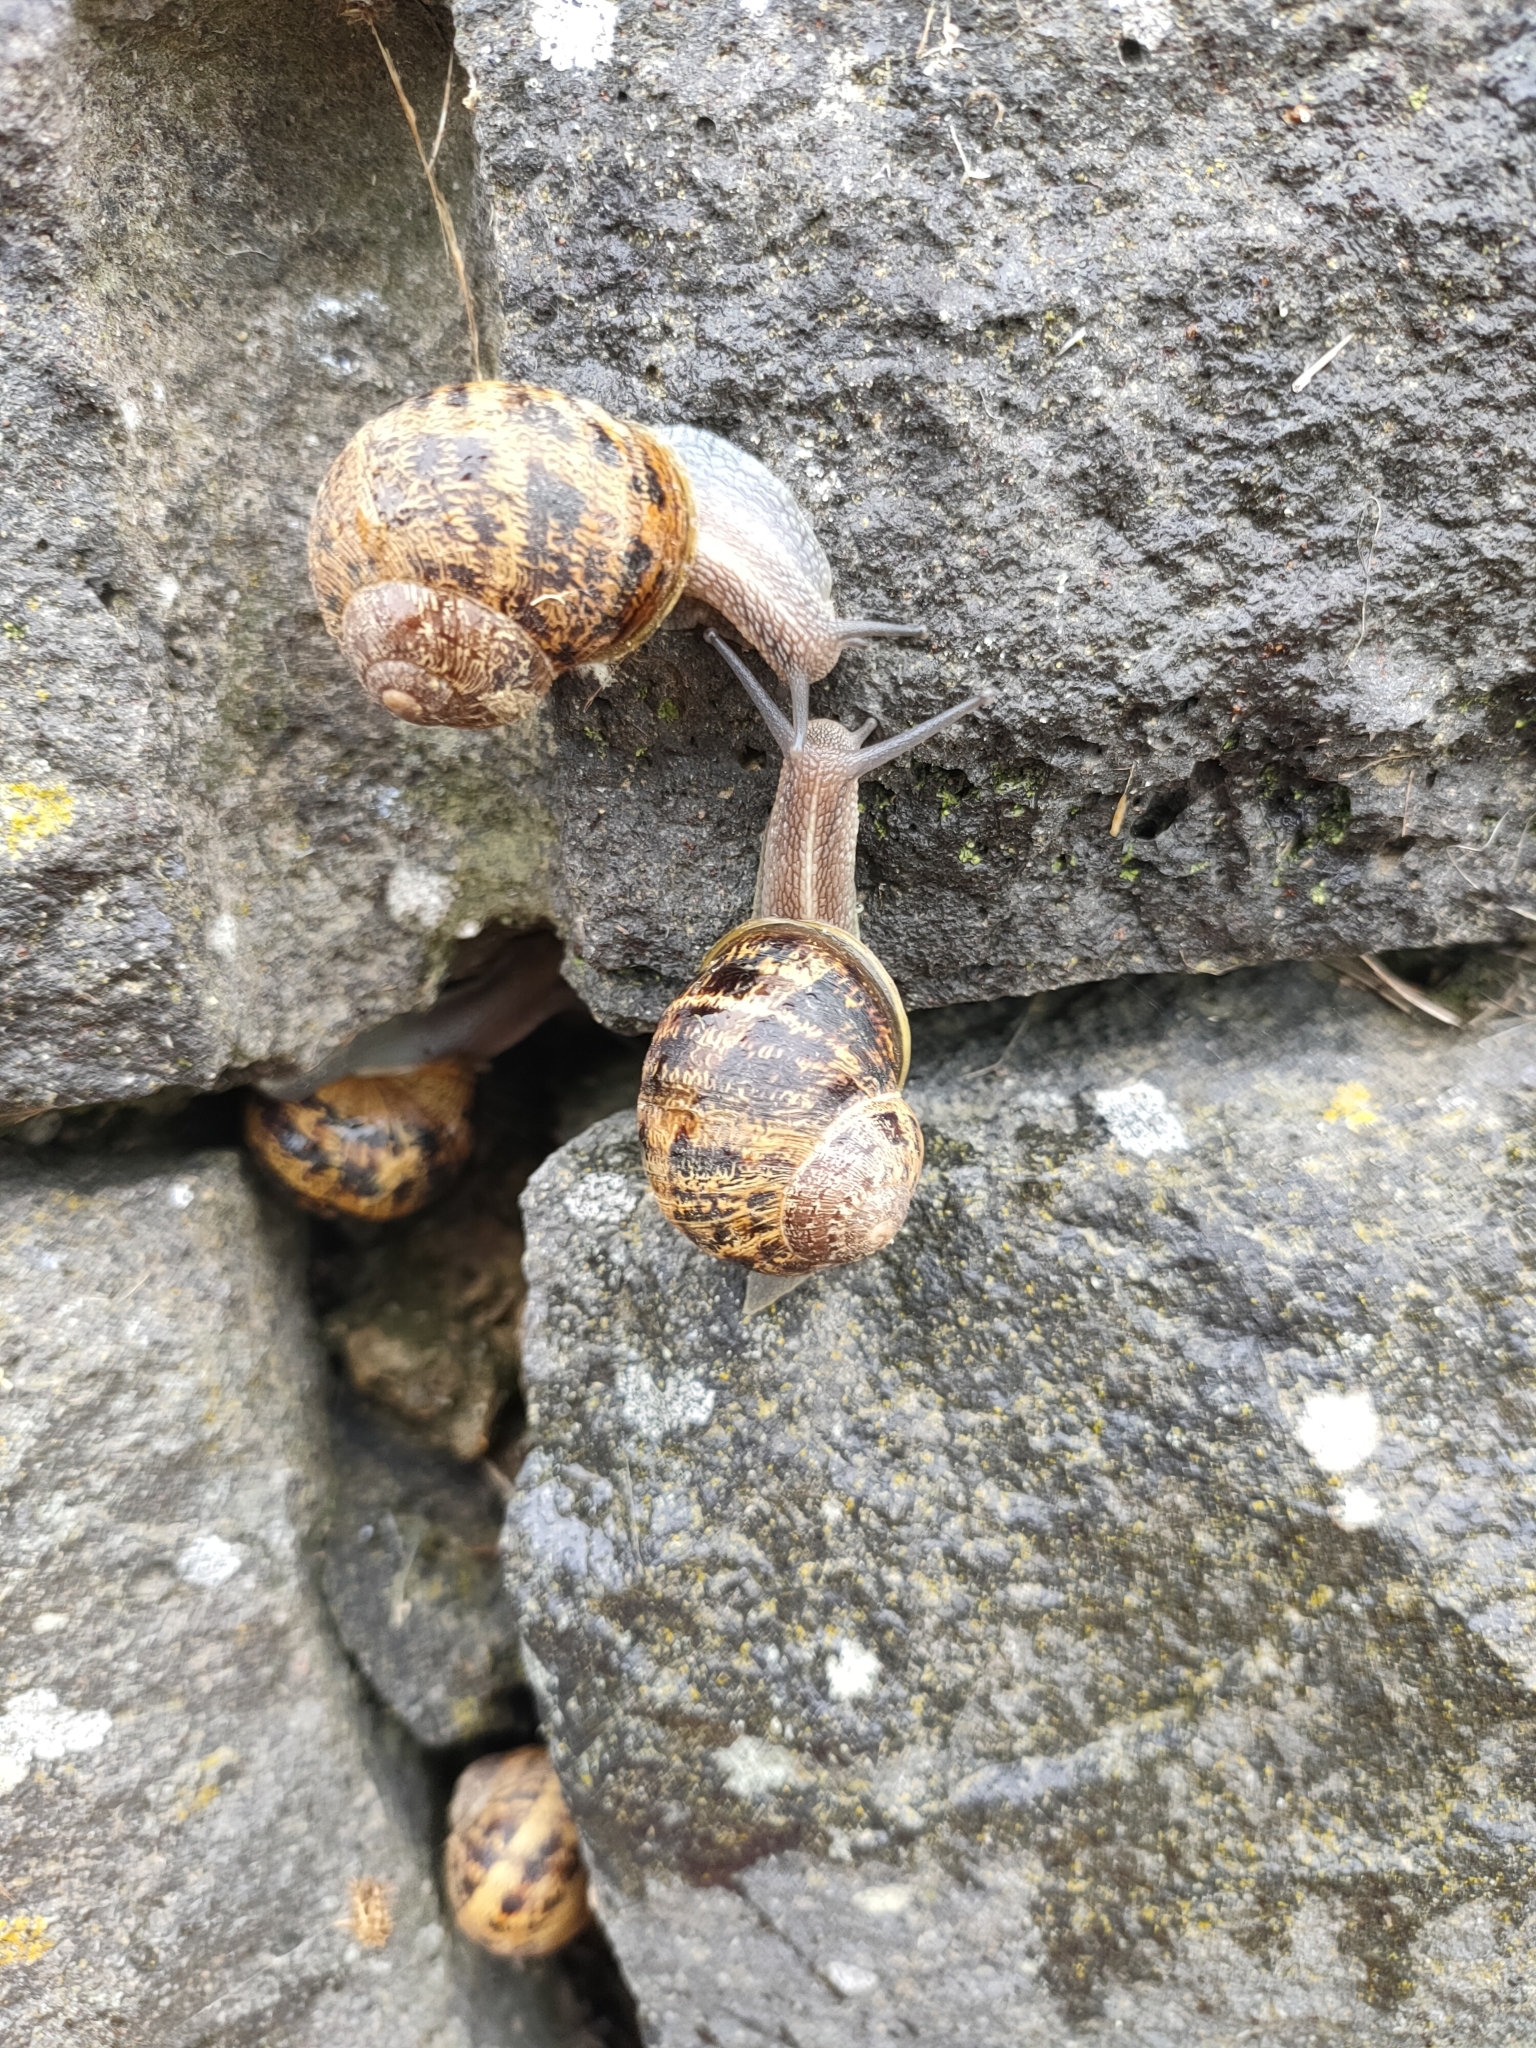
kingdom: Animalia
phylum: Mollusca
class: Gastropoda
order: Stylommatophora
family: Helicidae
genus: Cornu
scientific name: Cornu aspersum
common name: Brown garden snail
